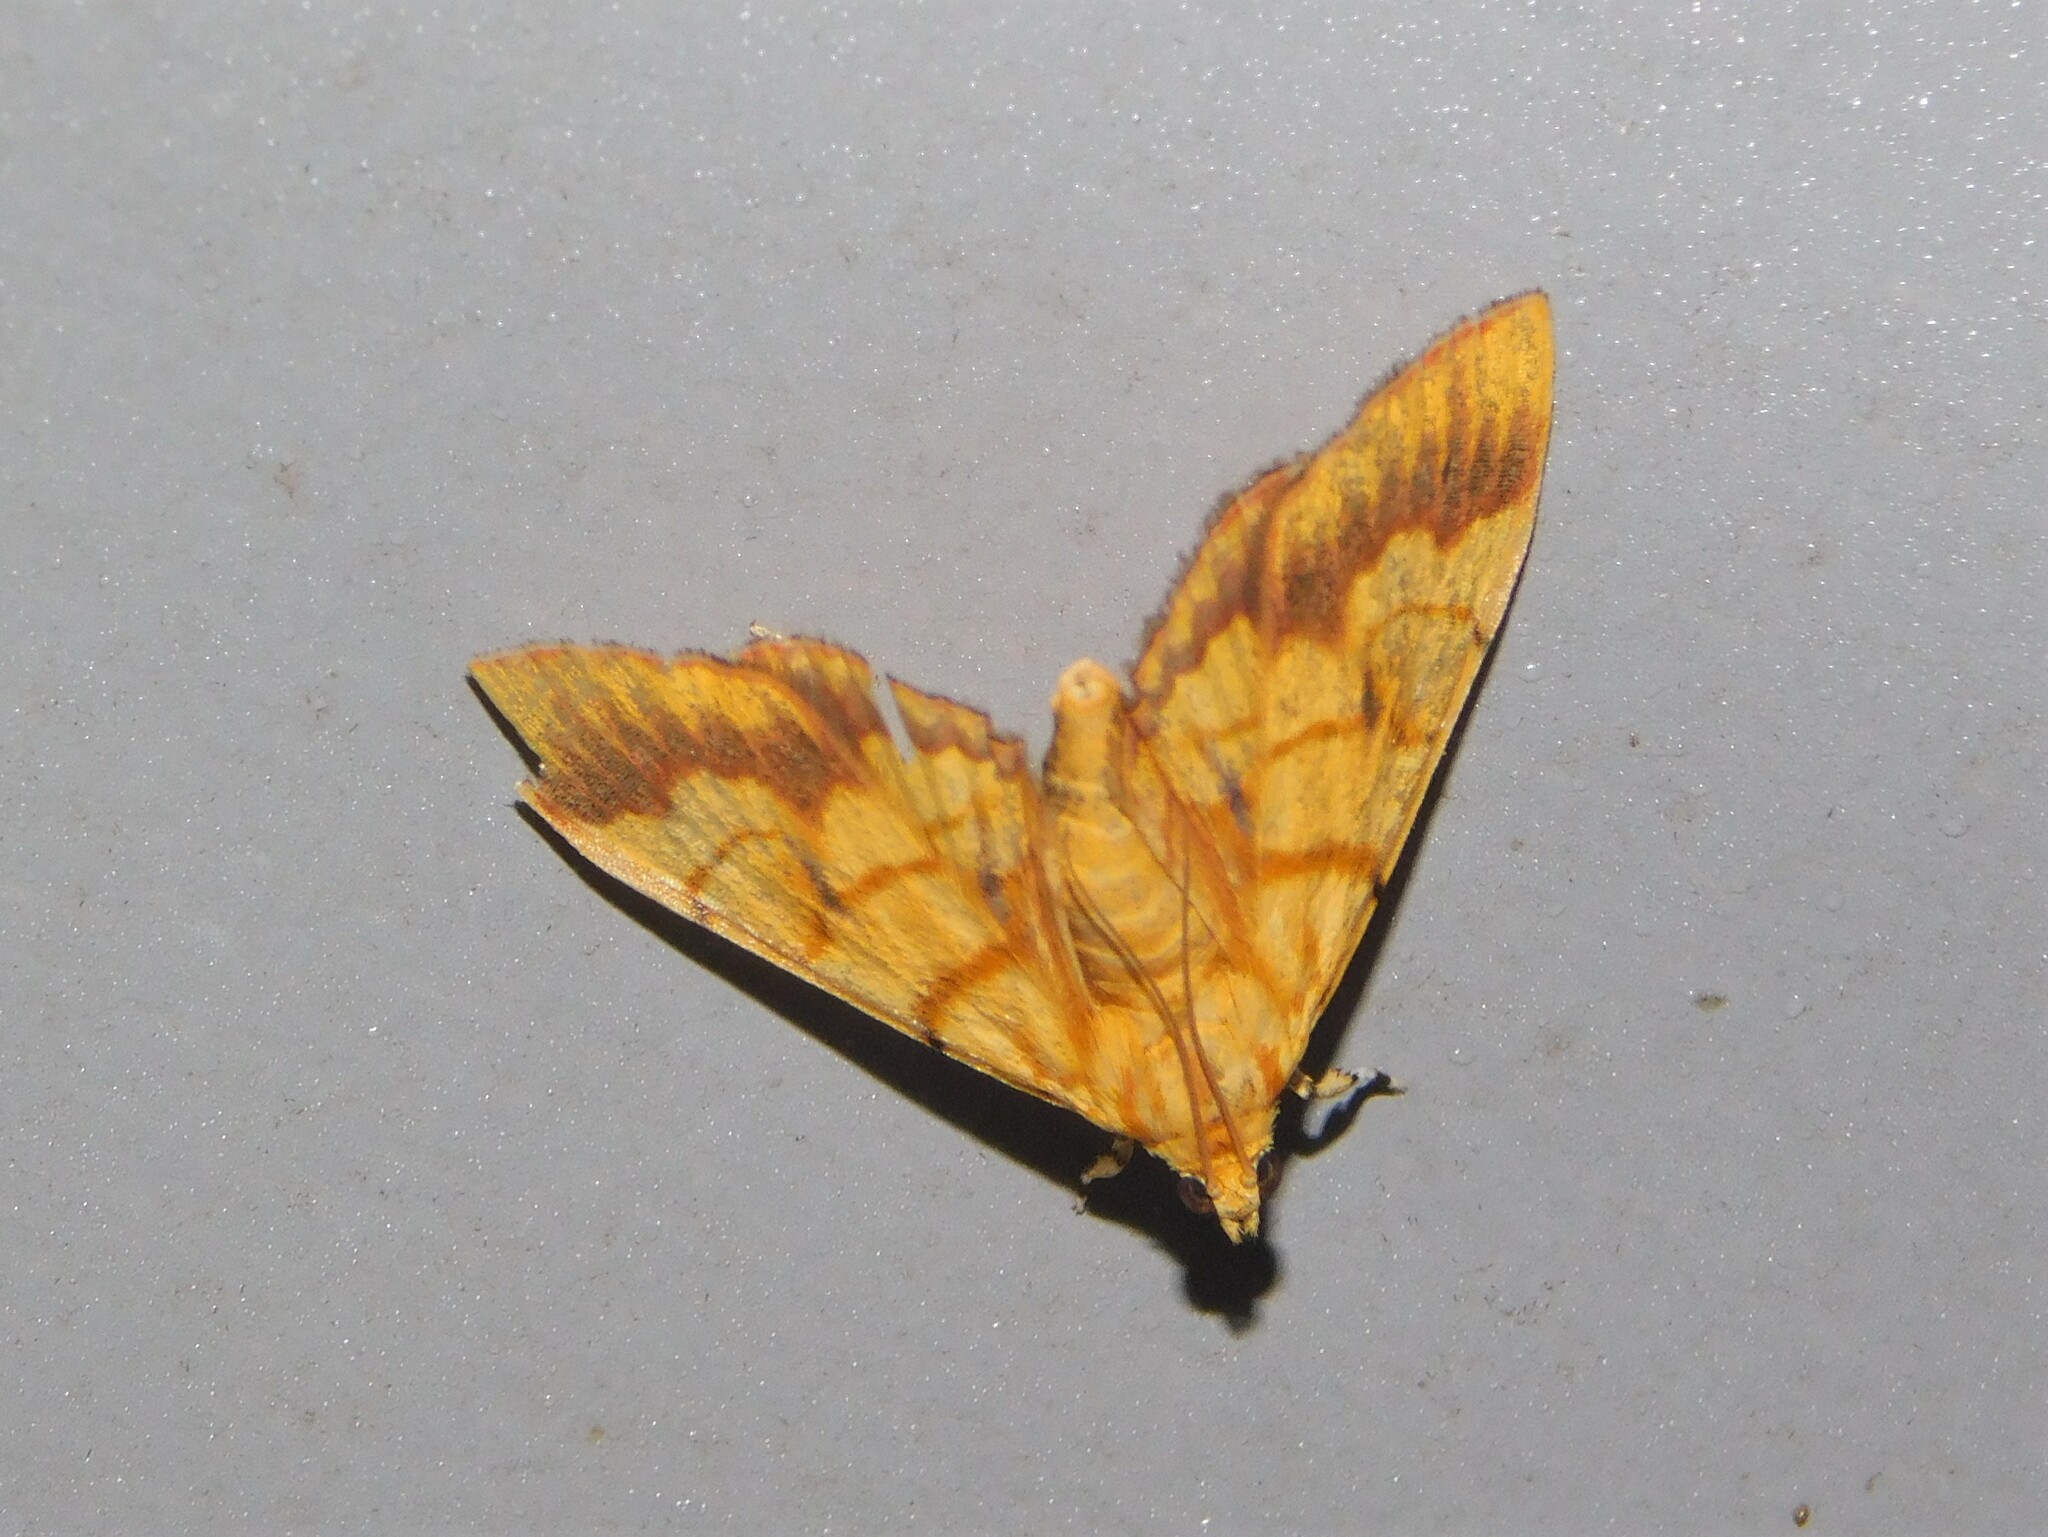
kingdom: Animalia
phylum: Arthropoda
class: Insecta
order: Lepidoptera
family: Crambidae
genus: Cryptosara
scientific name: Cryptosara caritalis
